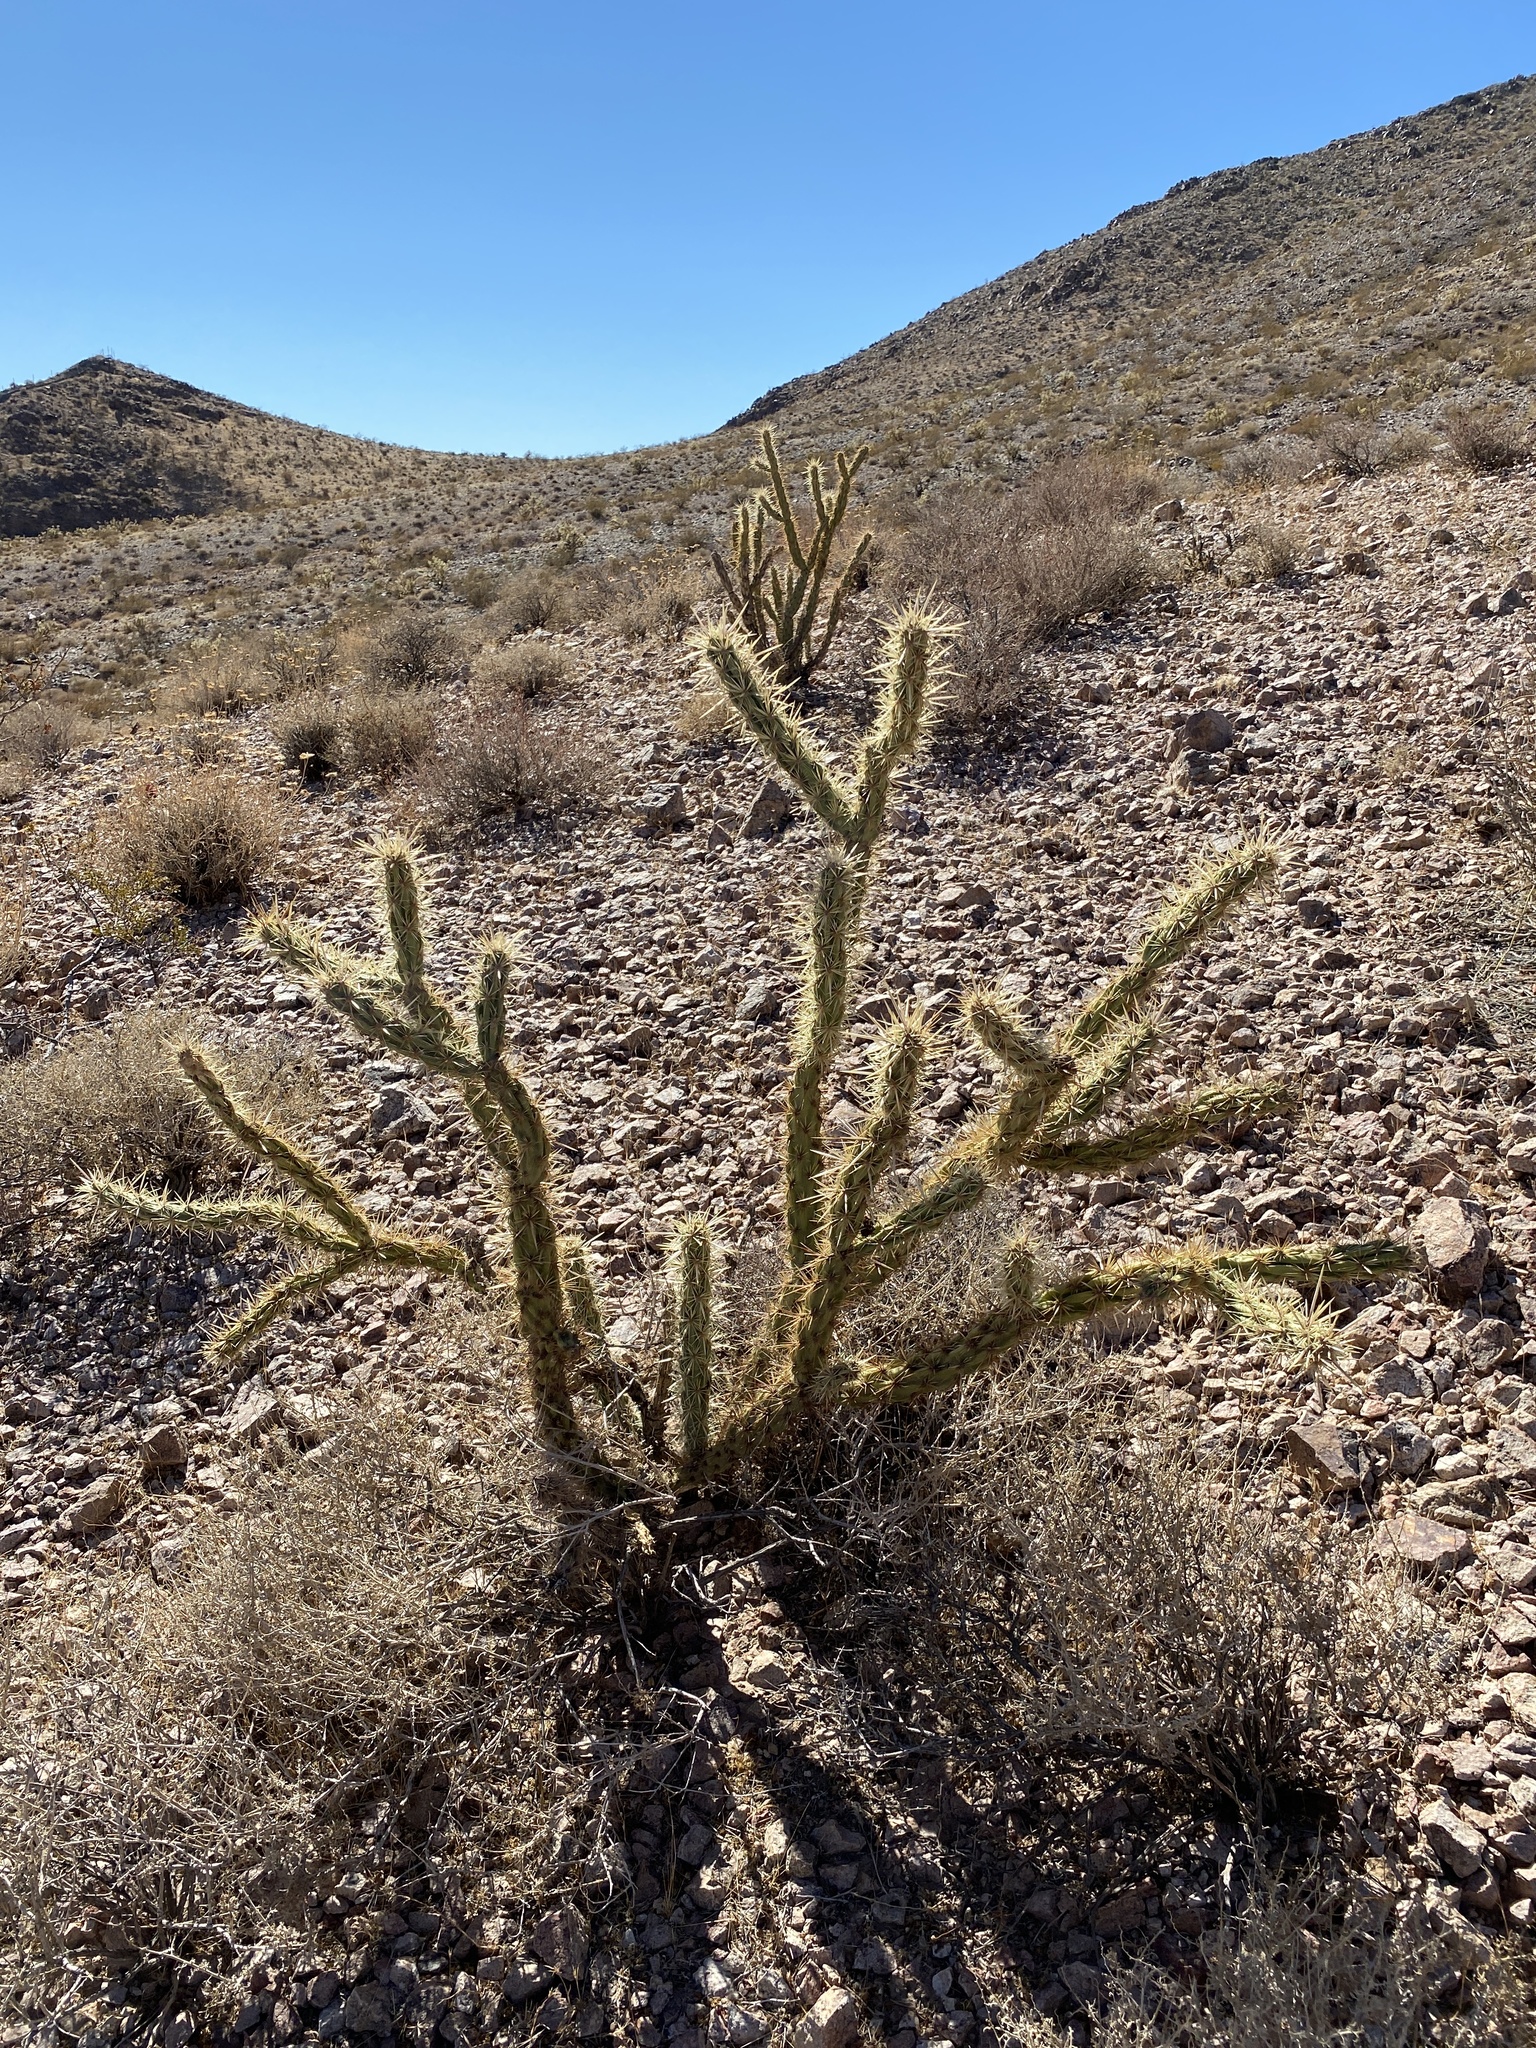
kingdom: Plantae
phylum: Tracheophyta
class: Magnoliopsida
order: Caryophyllales
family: Cactaceae
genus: Cylindropuntia
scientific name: Cylindropuntia acanthocarpa
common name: Buckhorn cholla
